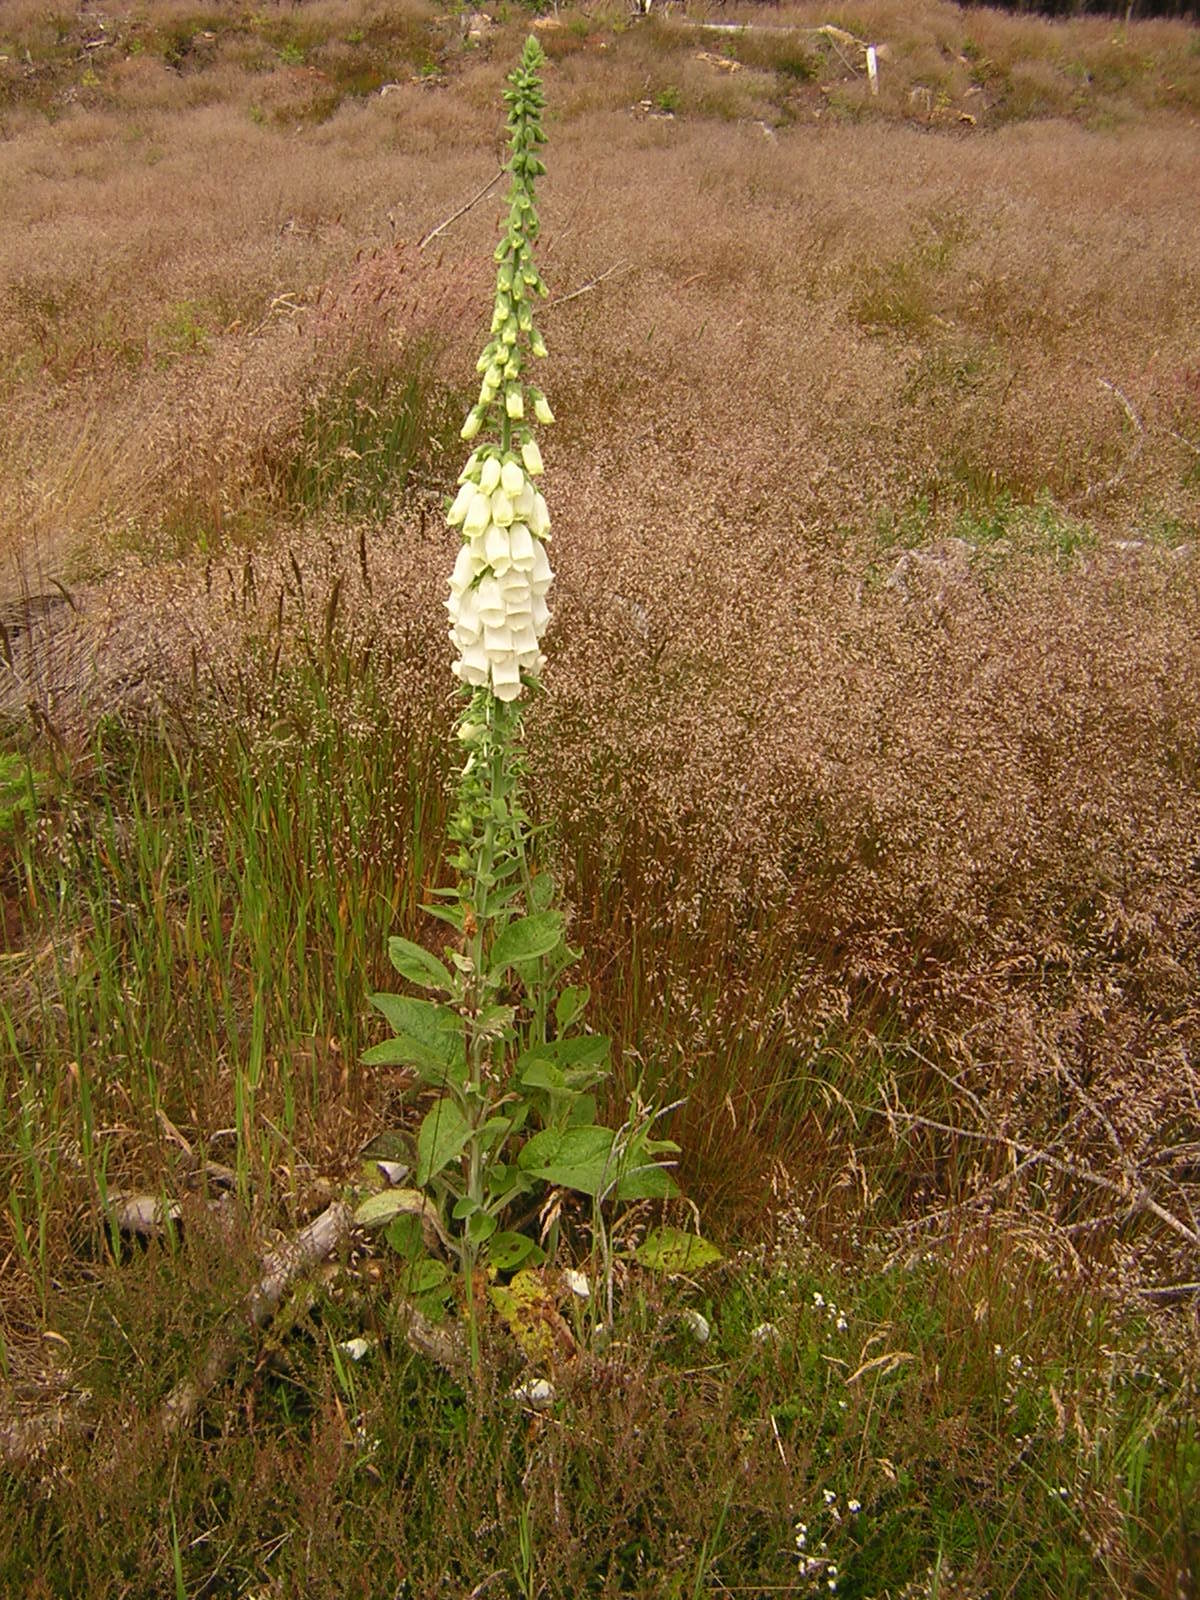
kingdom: Plantae
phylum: Tracheophyta
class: Magnoliopsida
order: Lamiales
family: Plantaginaceae
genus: Digitalis
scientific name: Digitalis purpurea
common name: Foxglove
